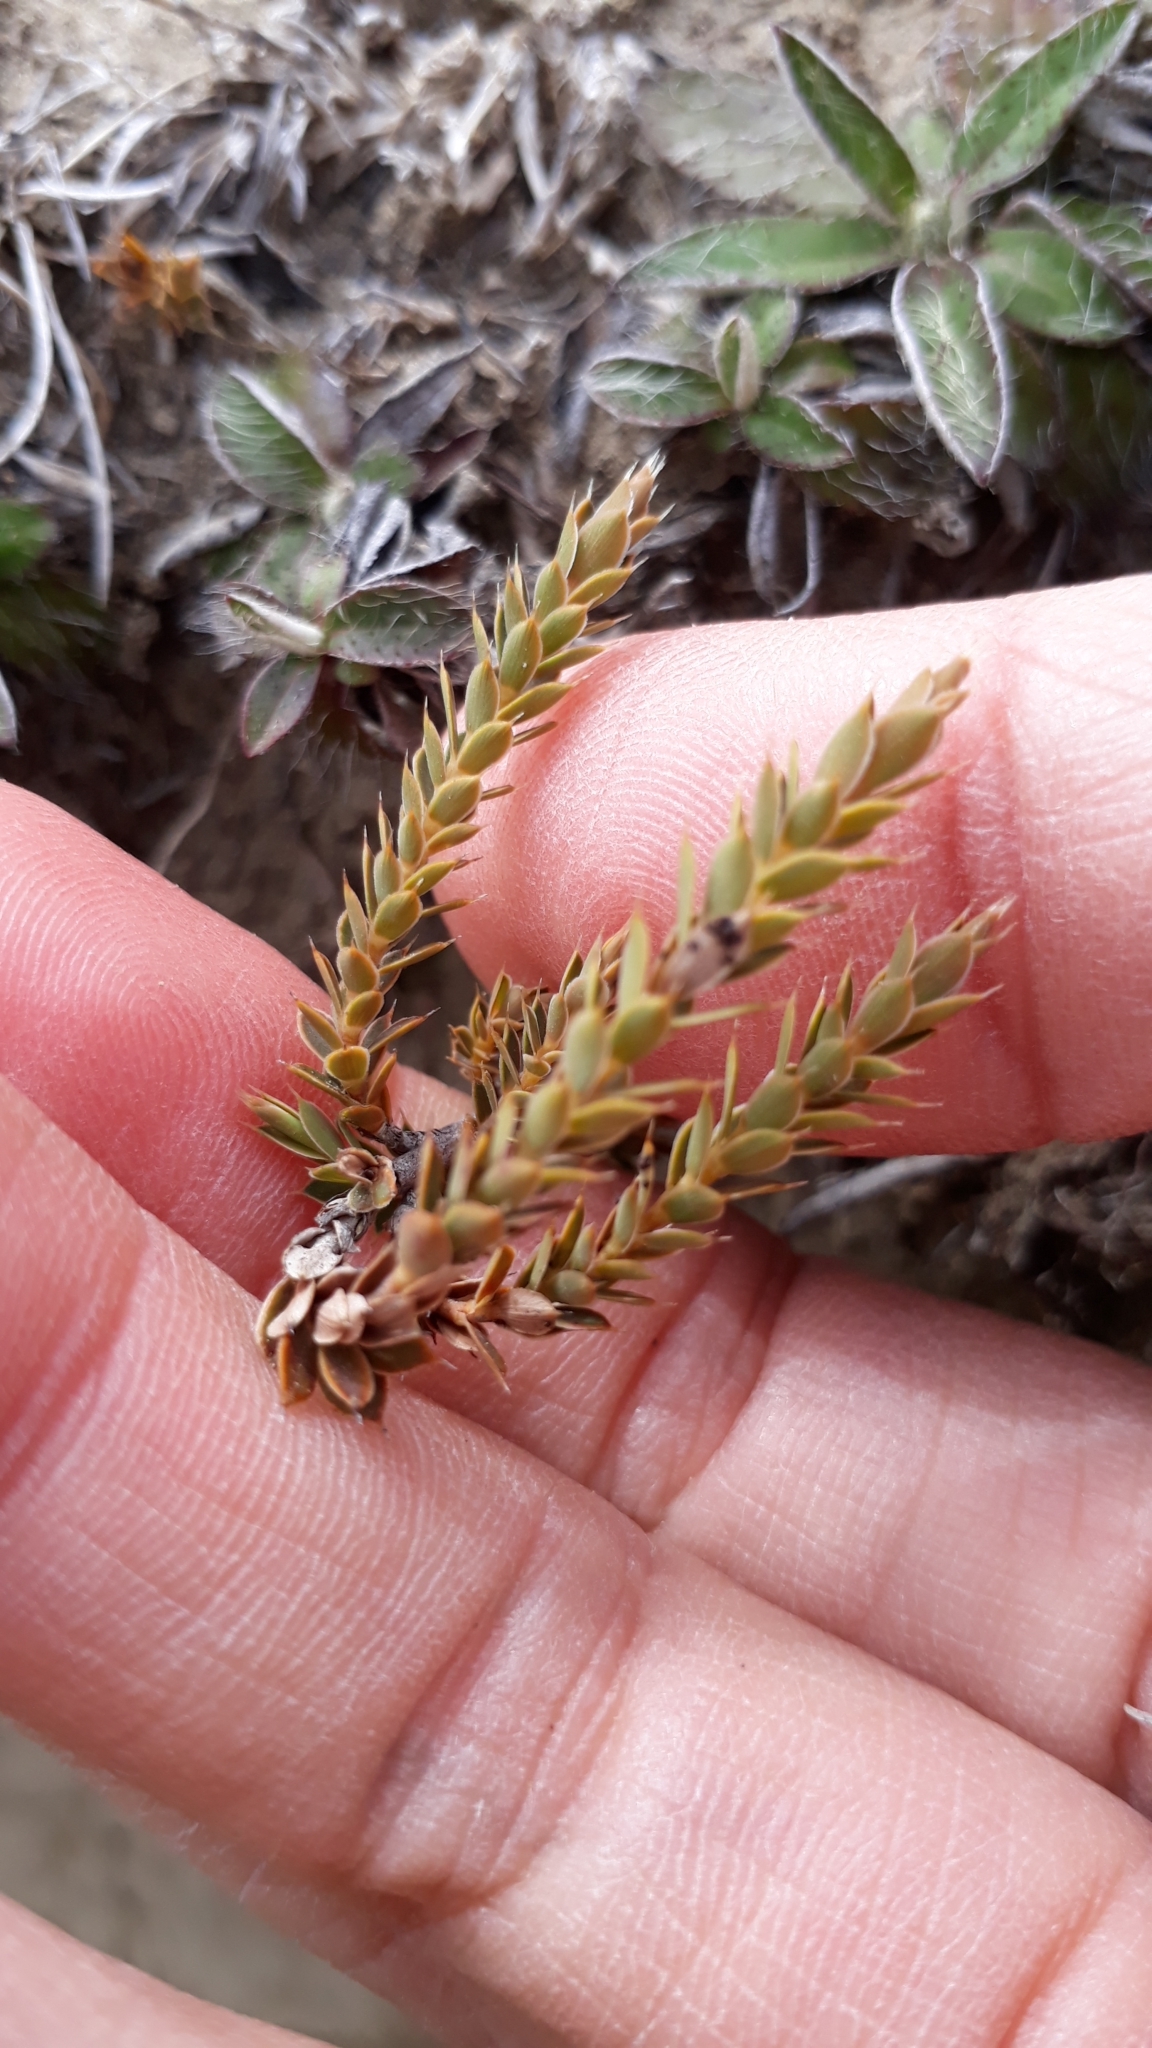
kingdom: Plantae
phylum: Tracheophyta
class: Magnoliopsida
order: Ericales
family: Ericaceae
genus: Styphelia
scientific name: Styphelia nesophila
